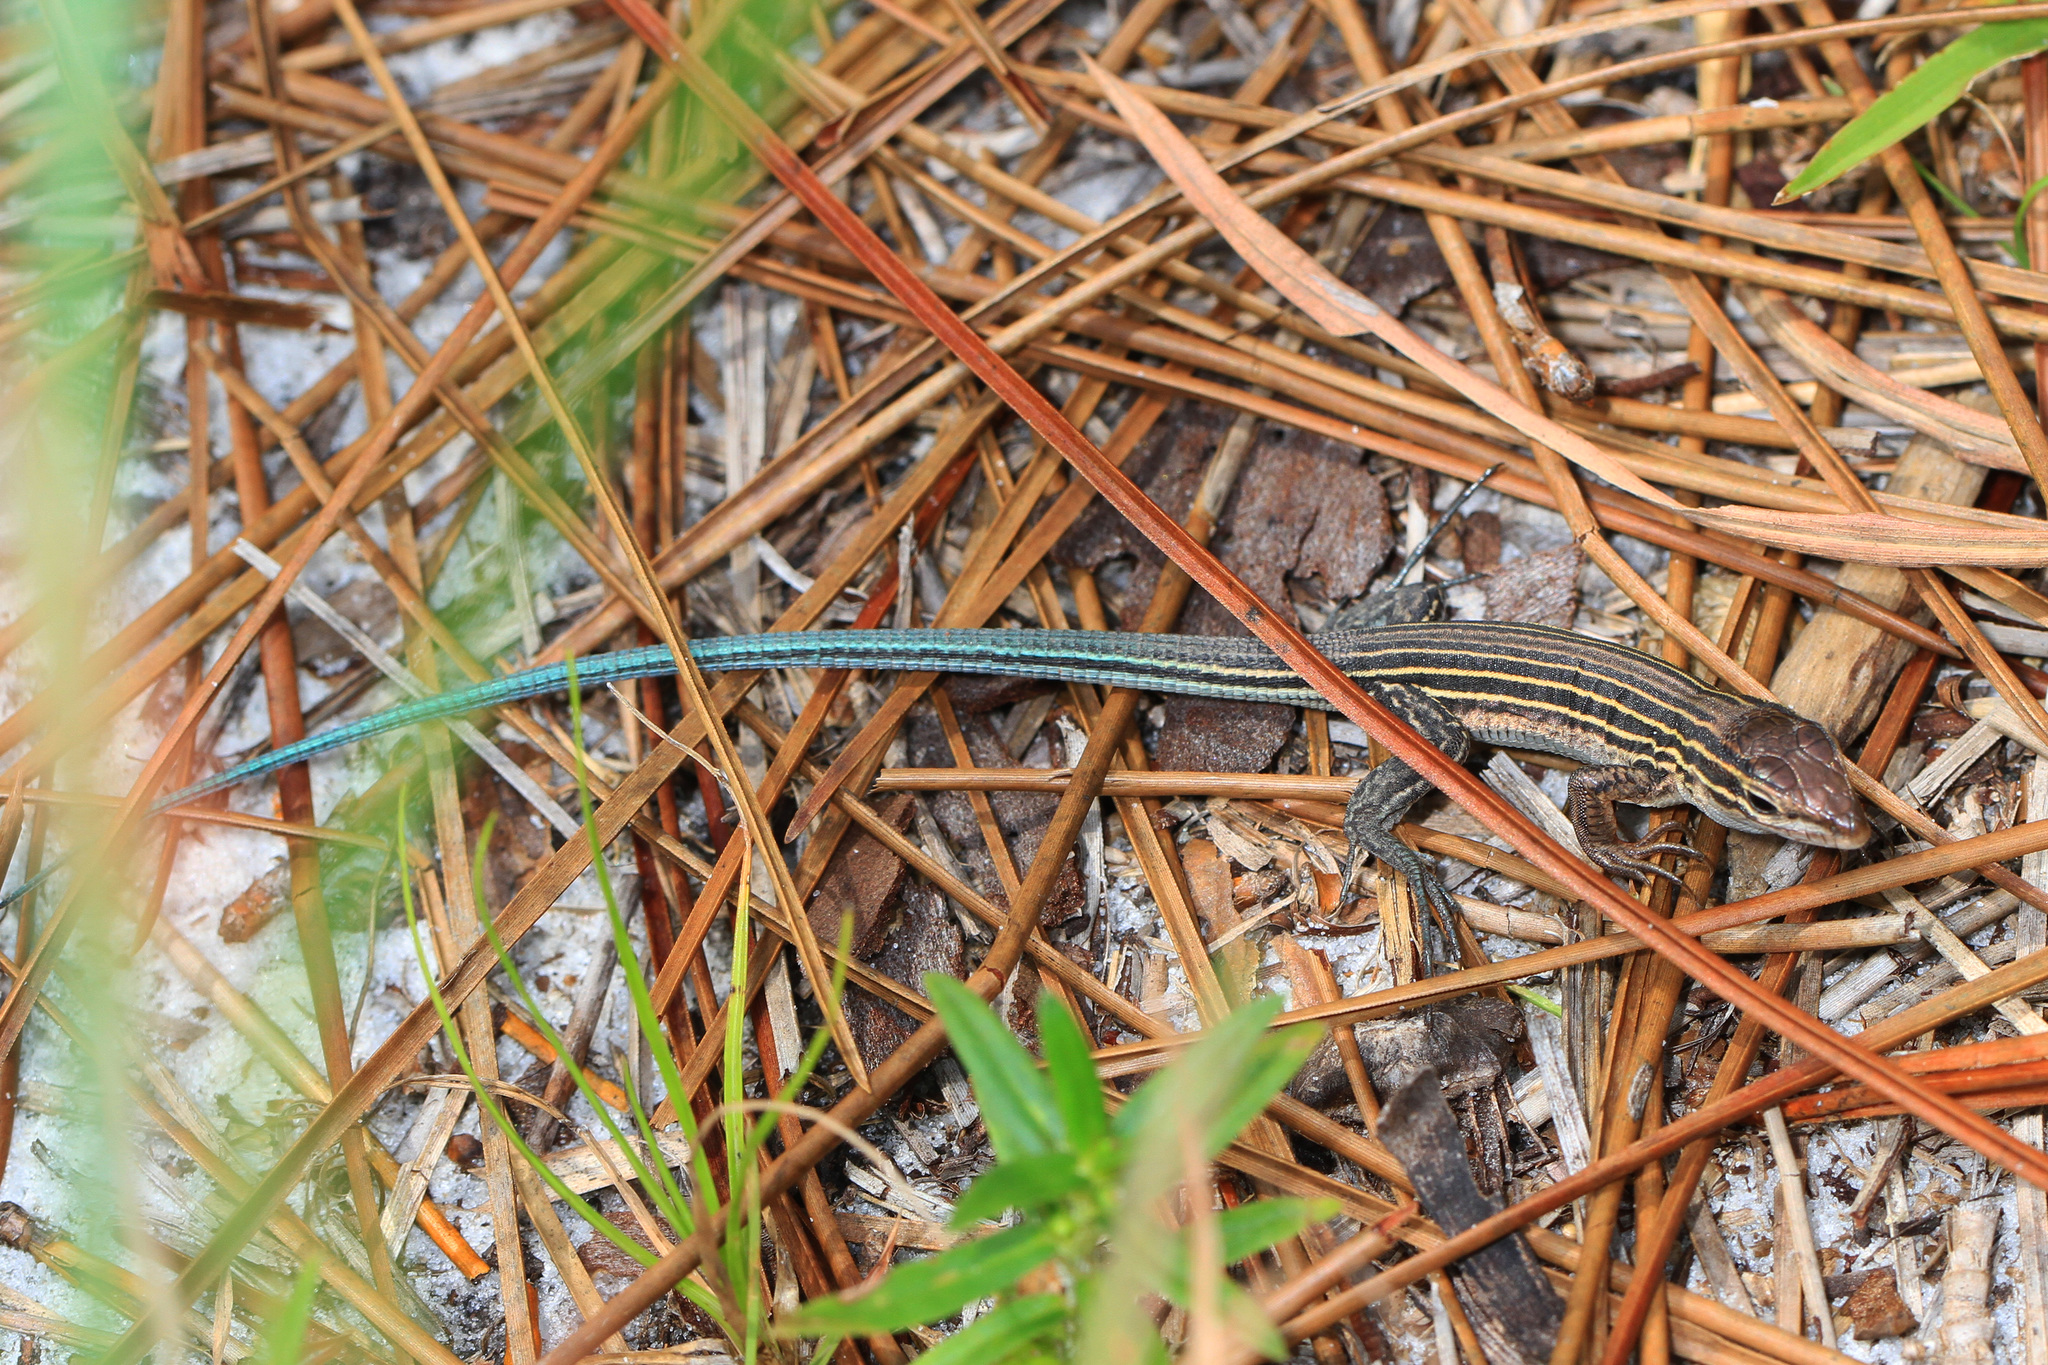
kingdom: Animalia
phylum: Chordata
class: Squamata
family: Teiidae
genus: Aspidoscelis
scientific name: Aspidoscelis sexlineatus
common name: Six-lined racerunner
